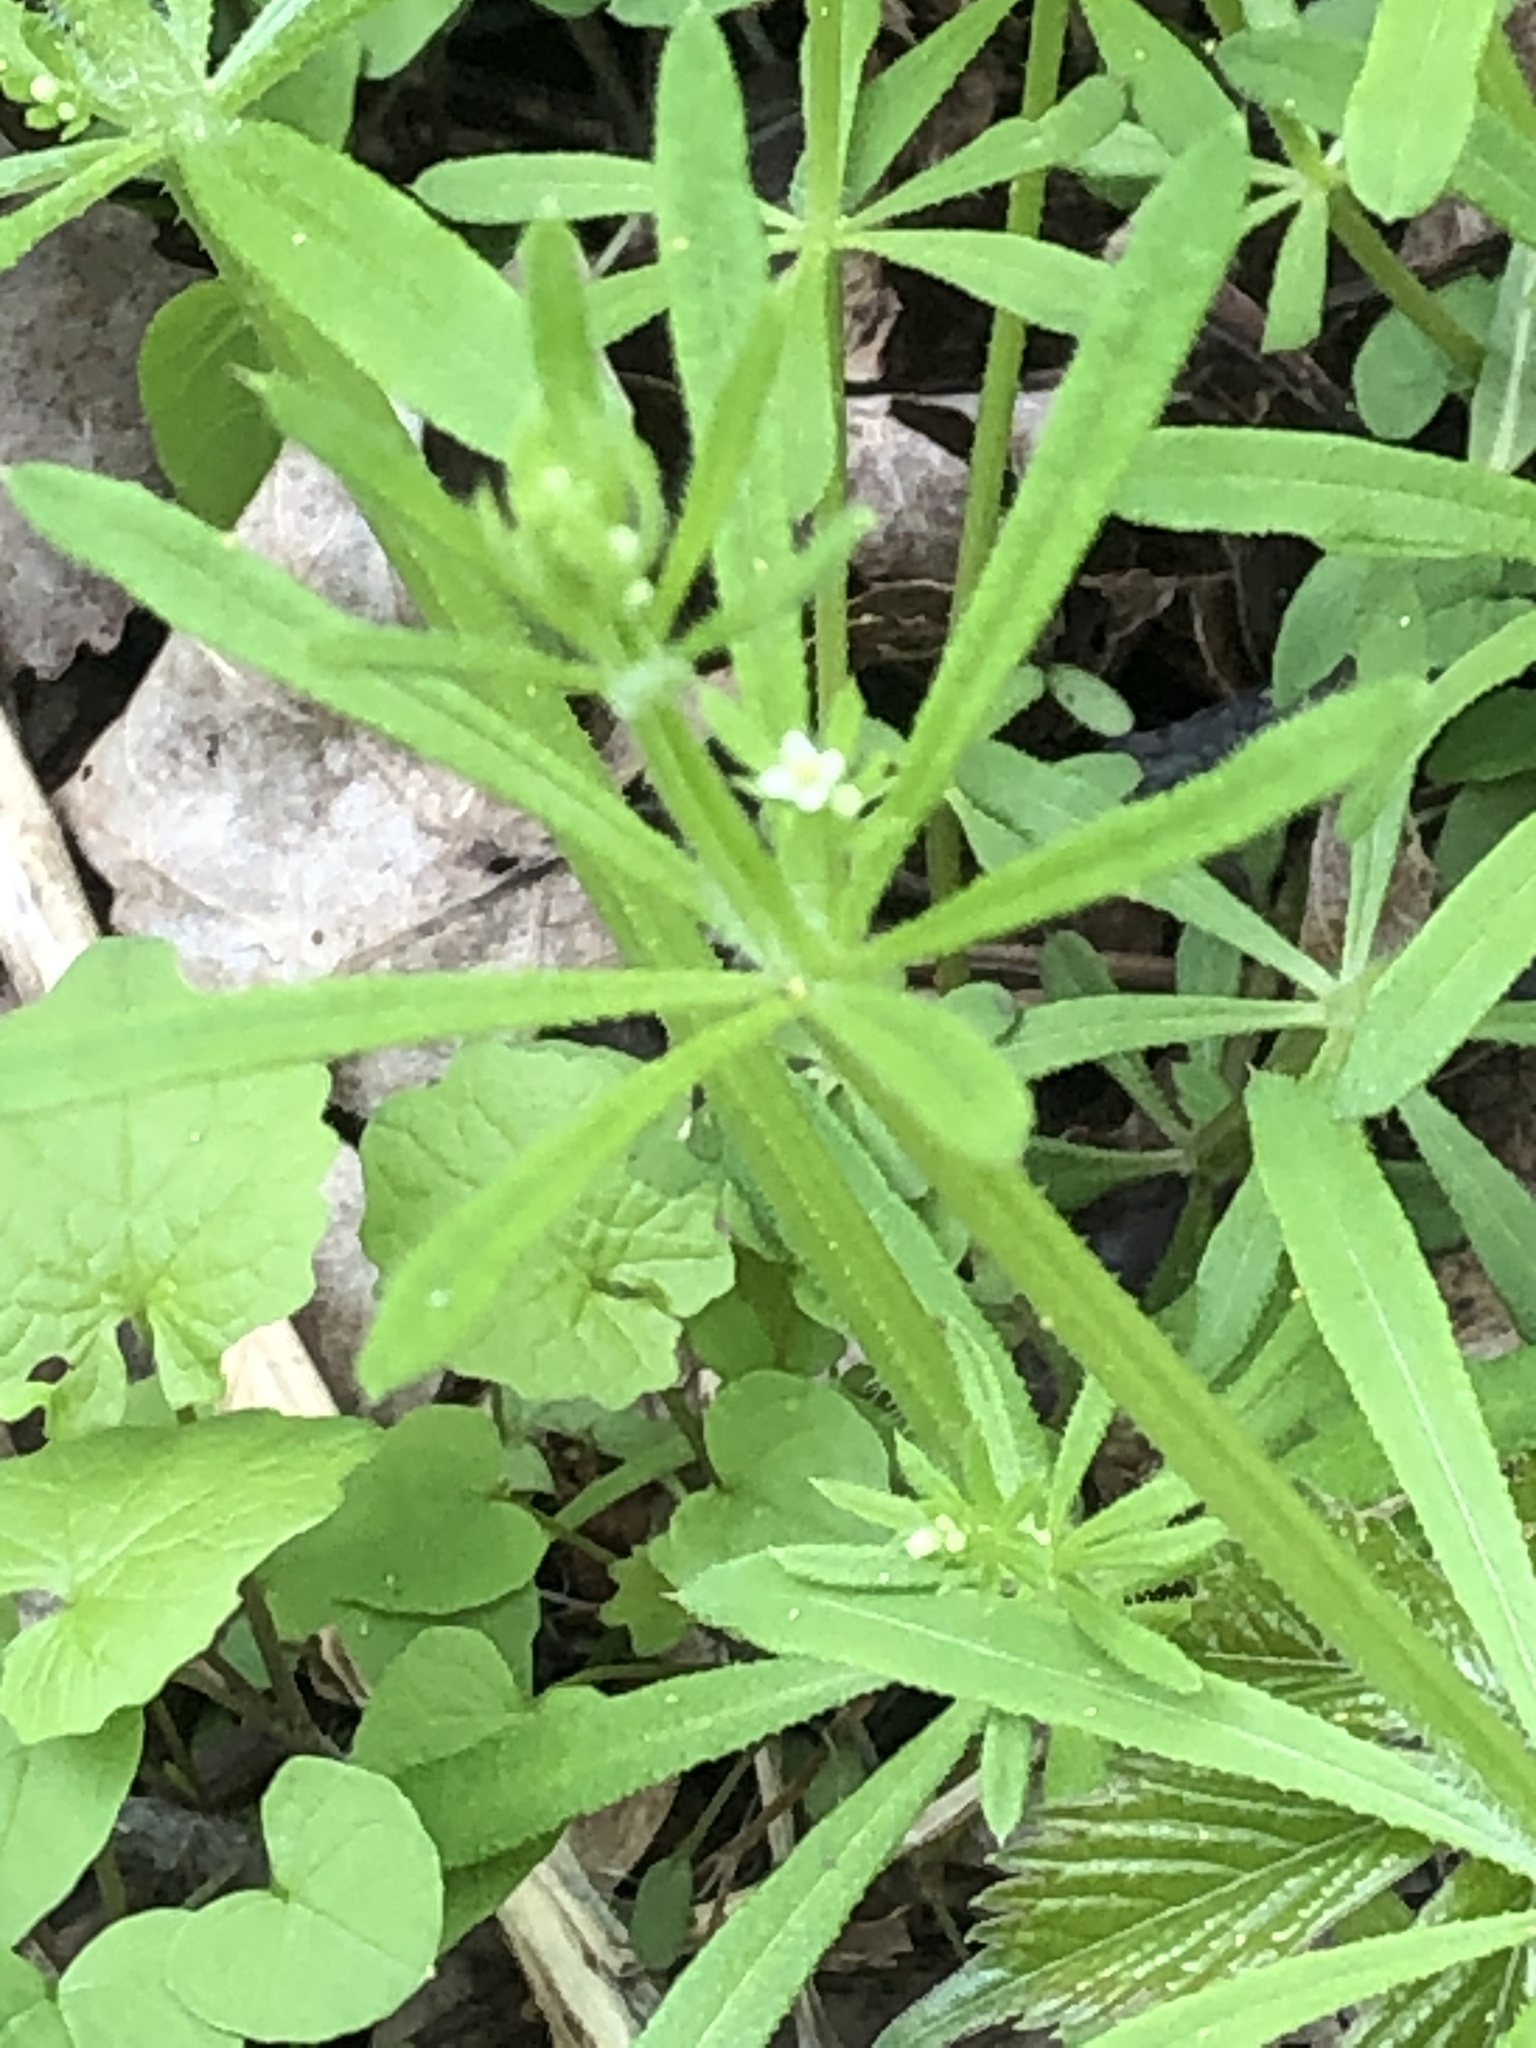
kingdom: Plantae
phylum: Tracheophyta
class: Magnoliopsida
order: Gentianales
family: Rubiaceae
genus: Galium
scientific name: Galium aparine
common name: Cleavers
